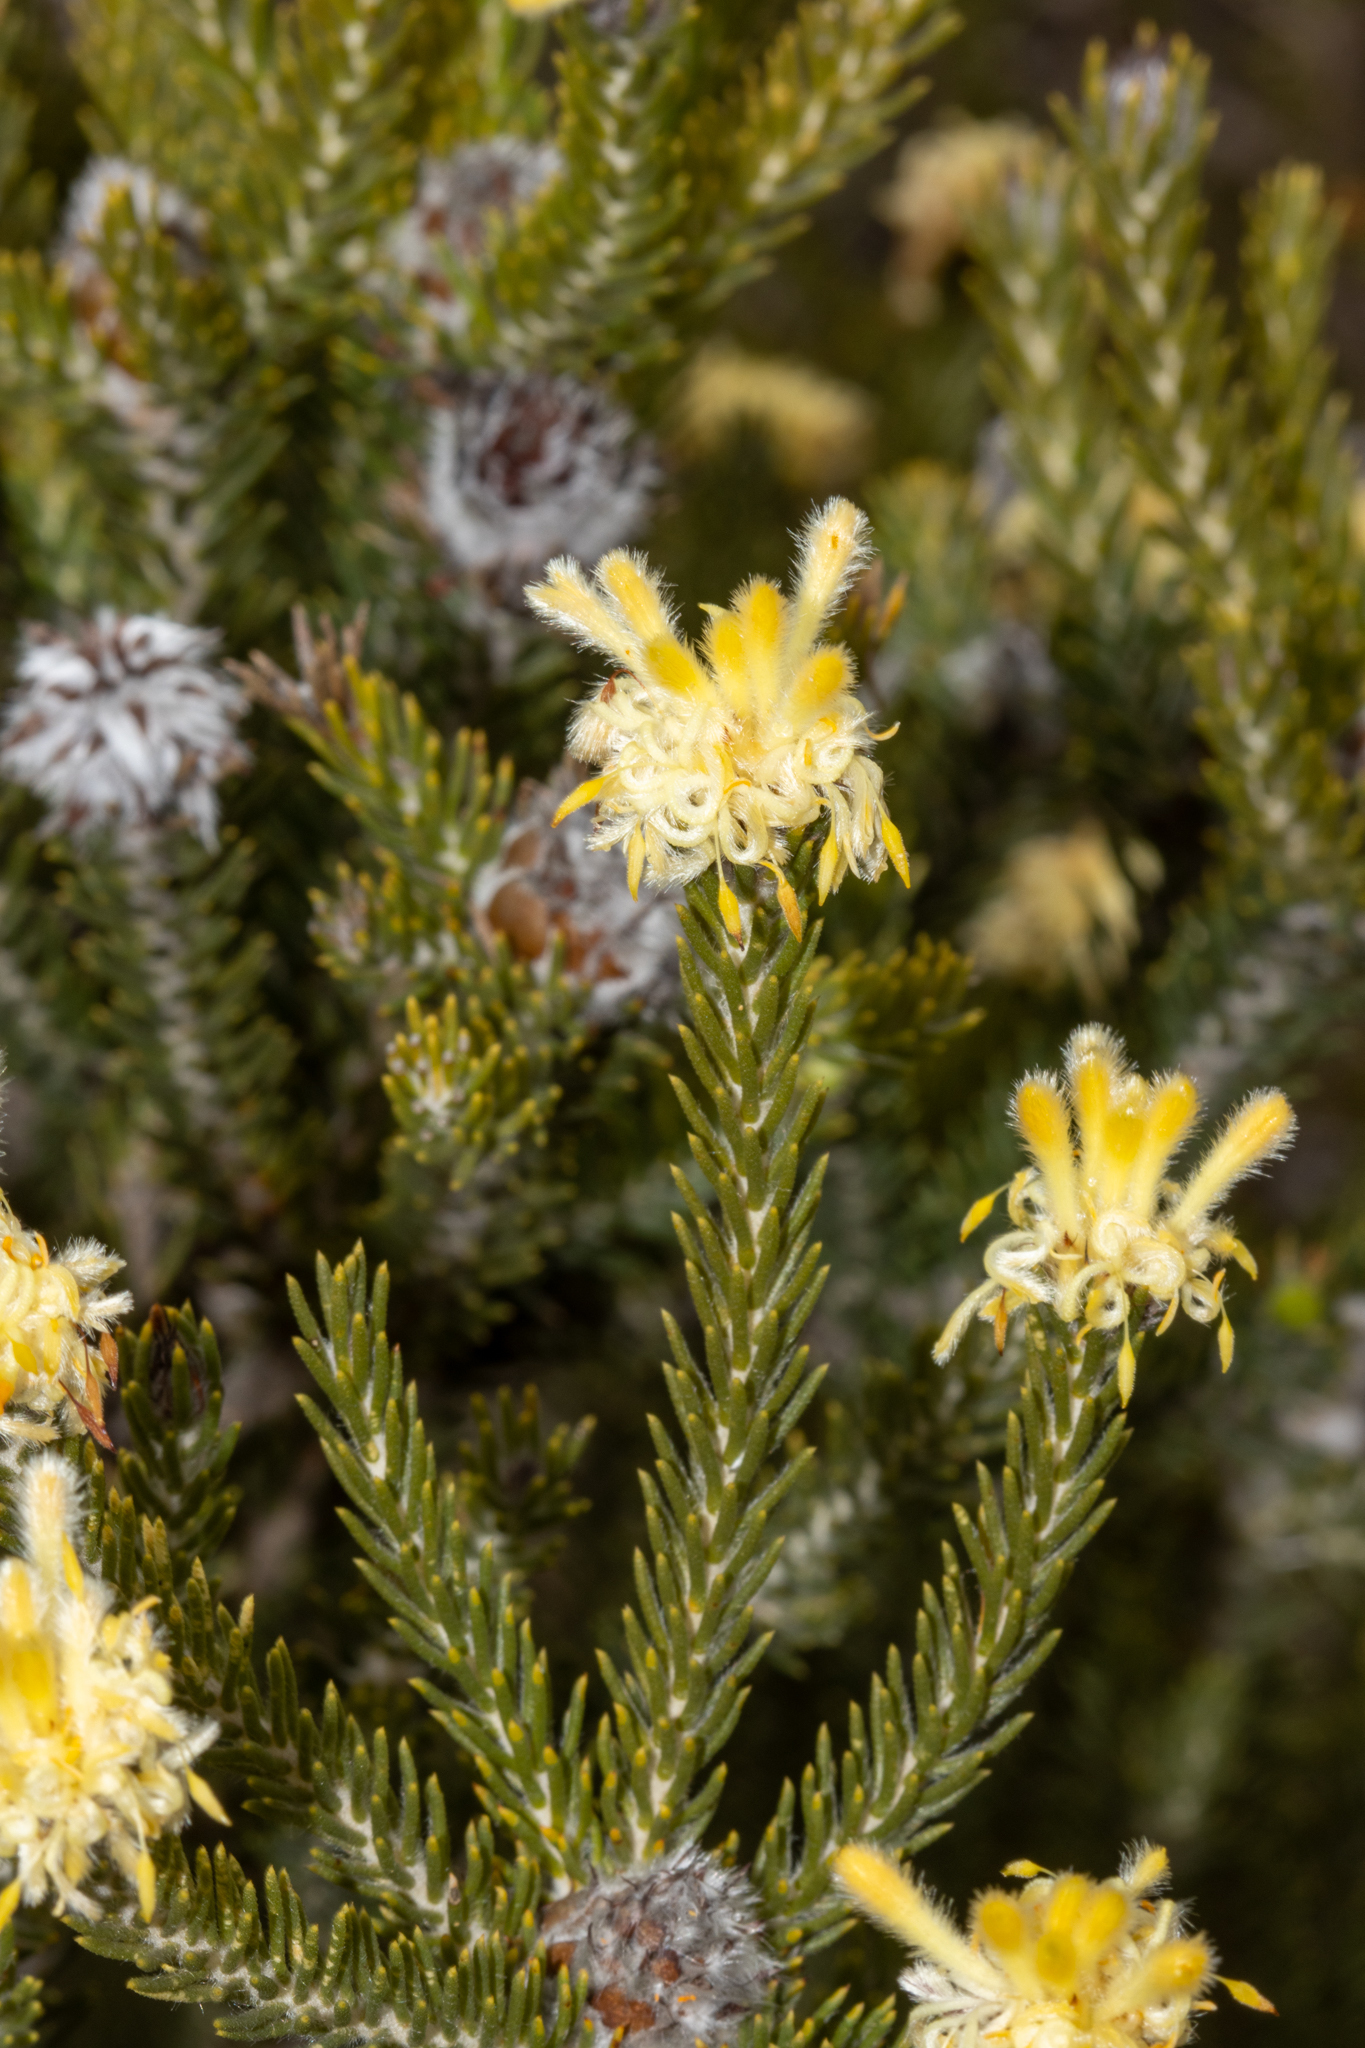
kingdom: Plantae
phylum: Tracheophyta
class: Magnoliopsida
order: Proteales
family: Proteaceae
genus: Petrophile
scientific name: Petrophile scabriuscula
